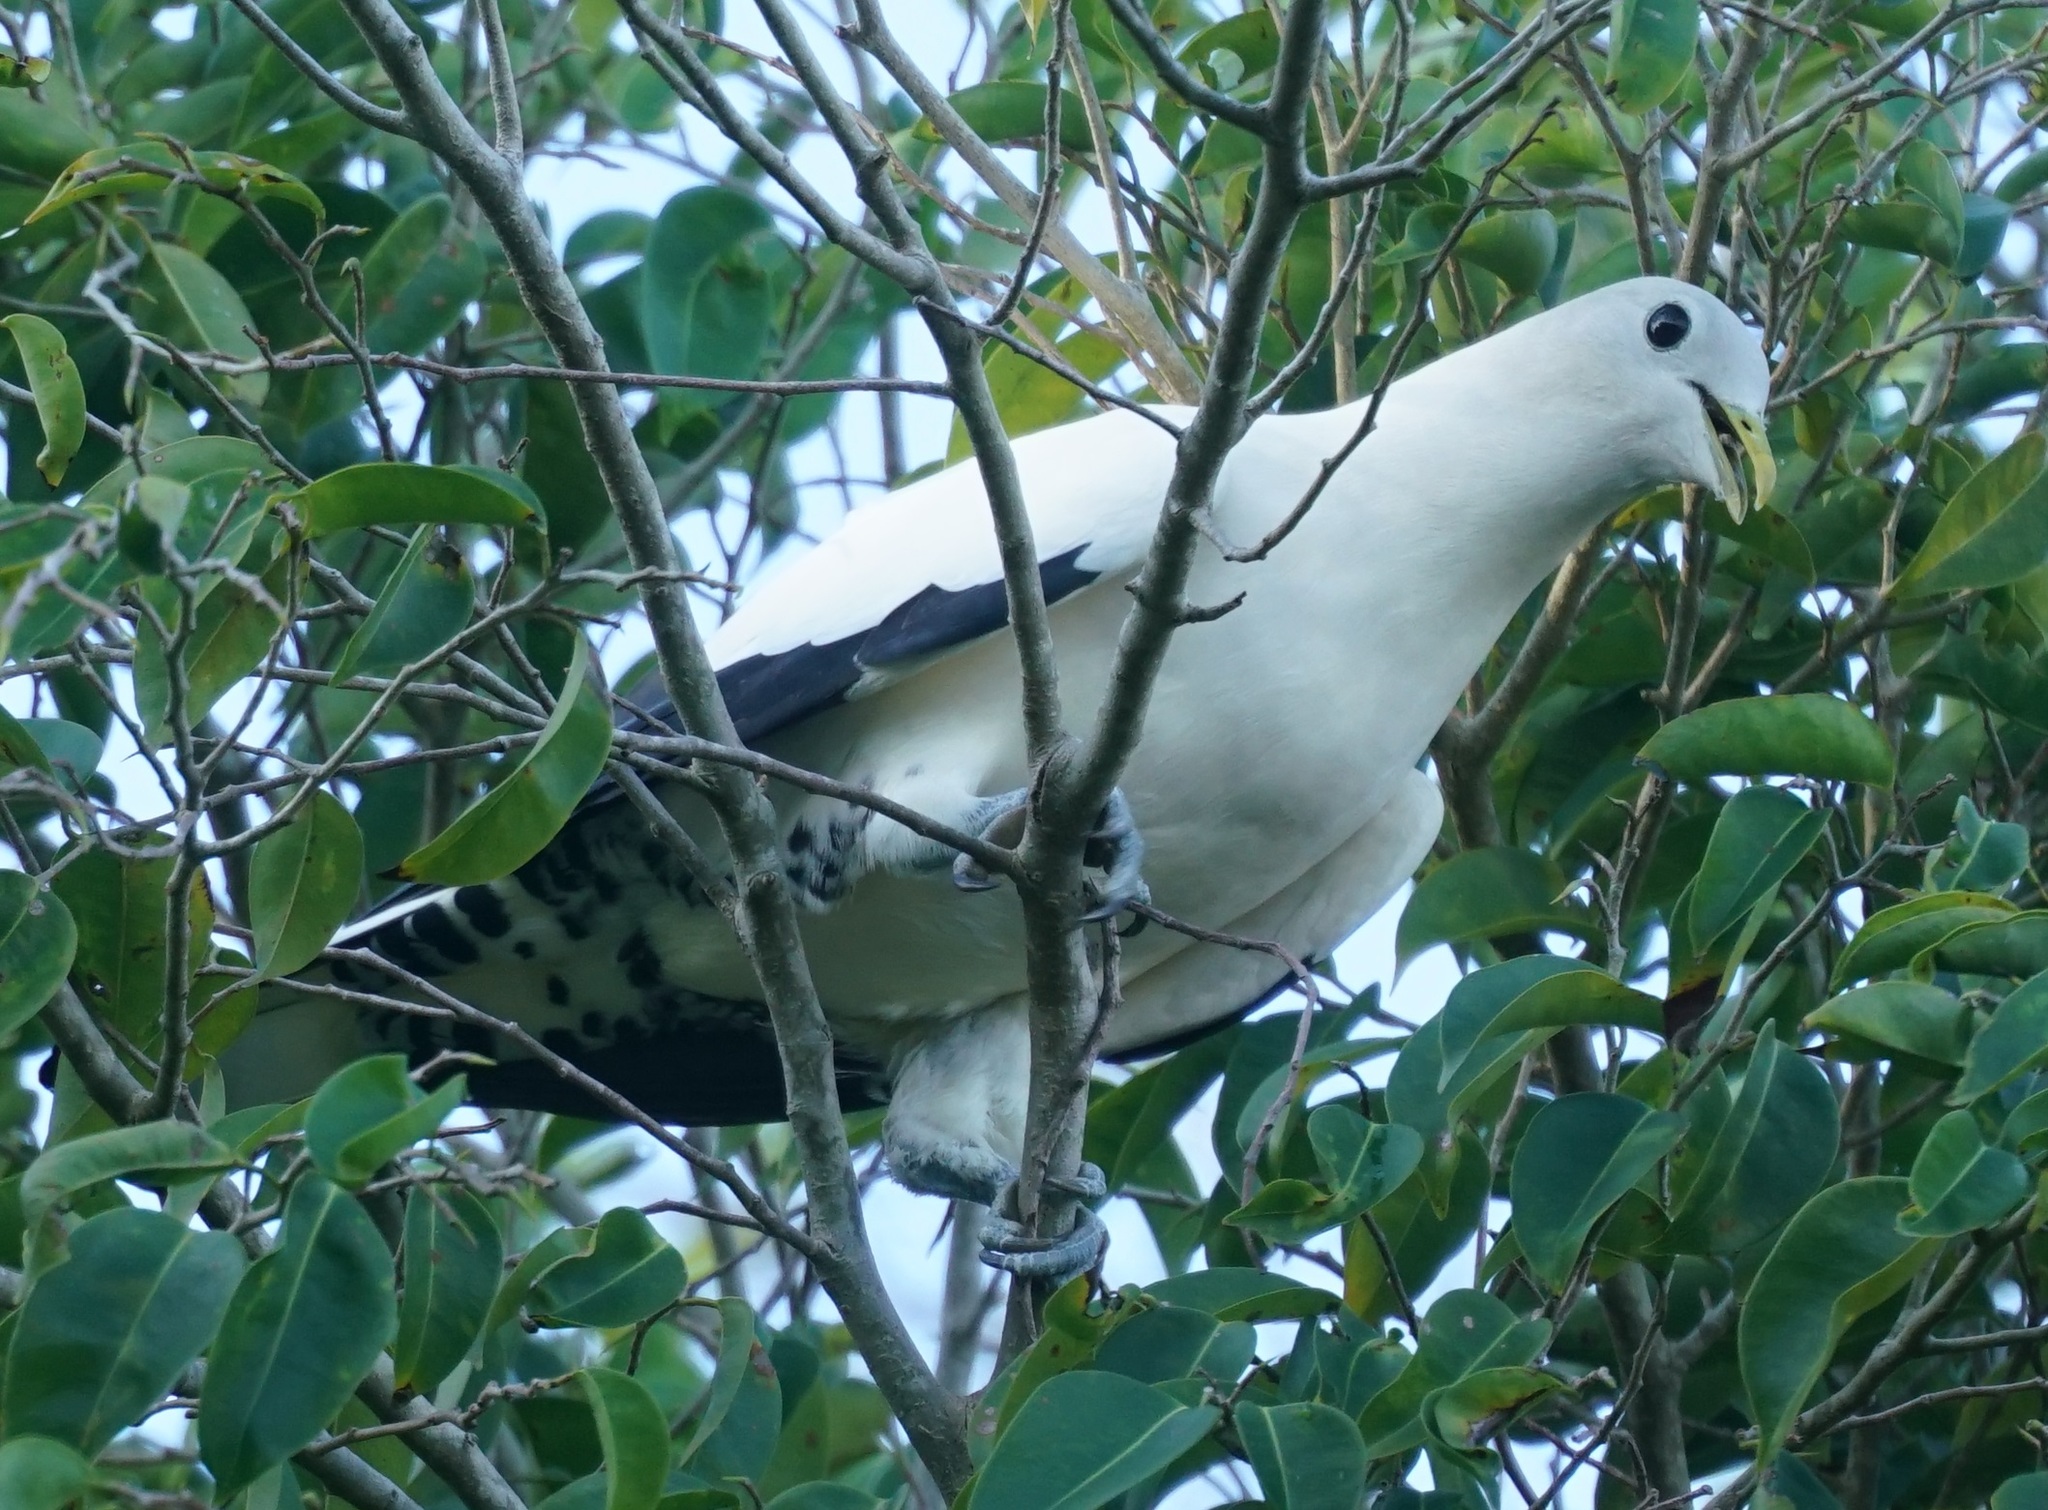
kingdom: Animalia
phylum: Chordata
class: Aves
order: Columbiformes
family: Columbidae
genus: Ducula
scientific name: Ducula spilorrhoa
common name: Torresian imperial pigeon
